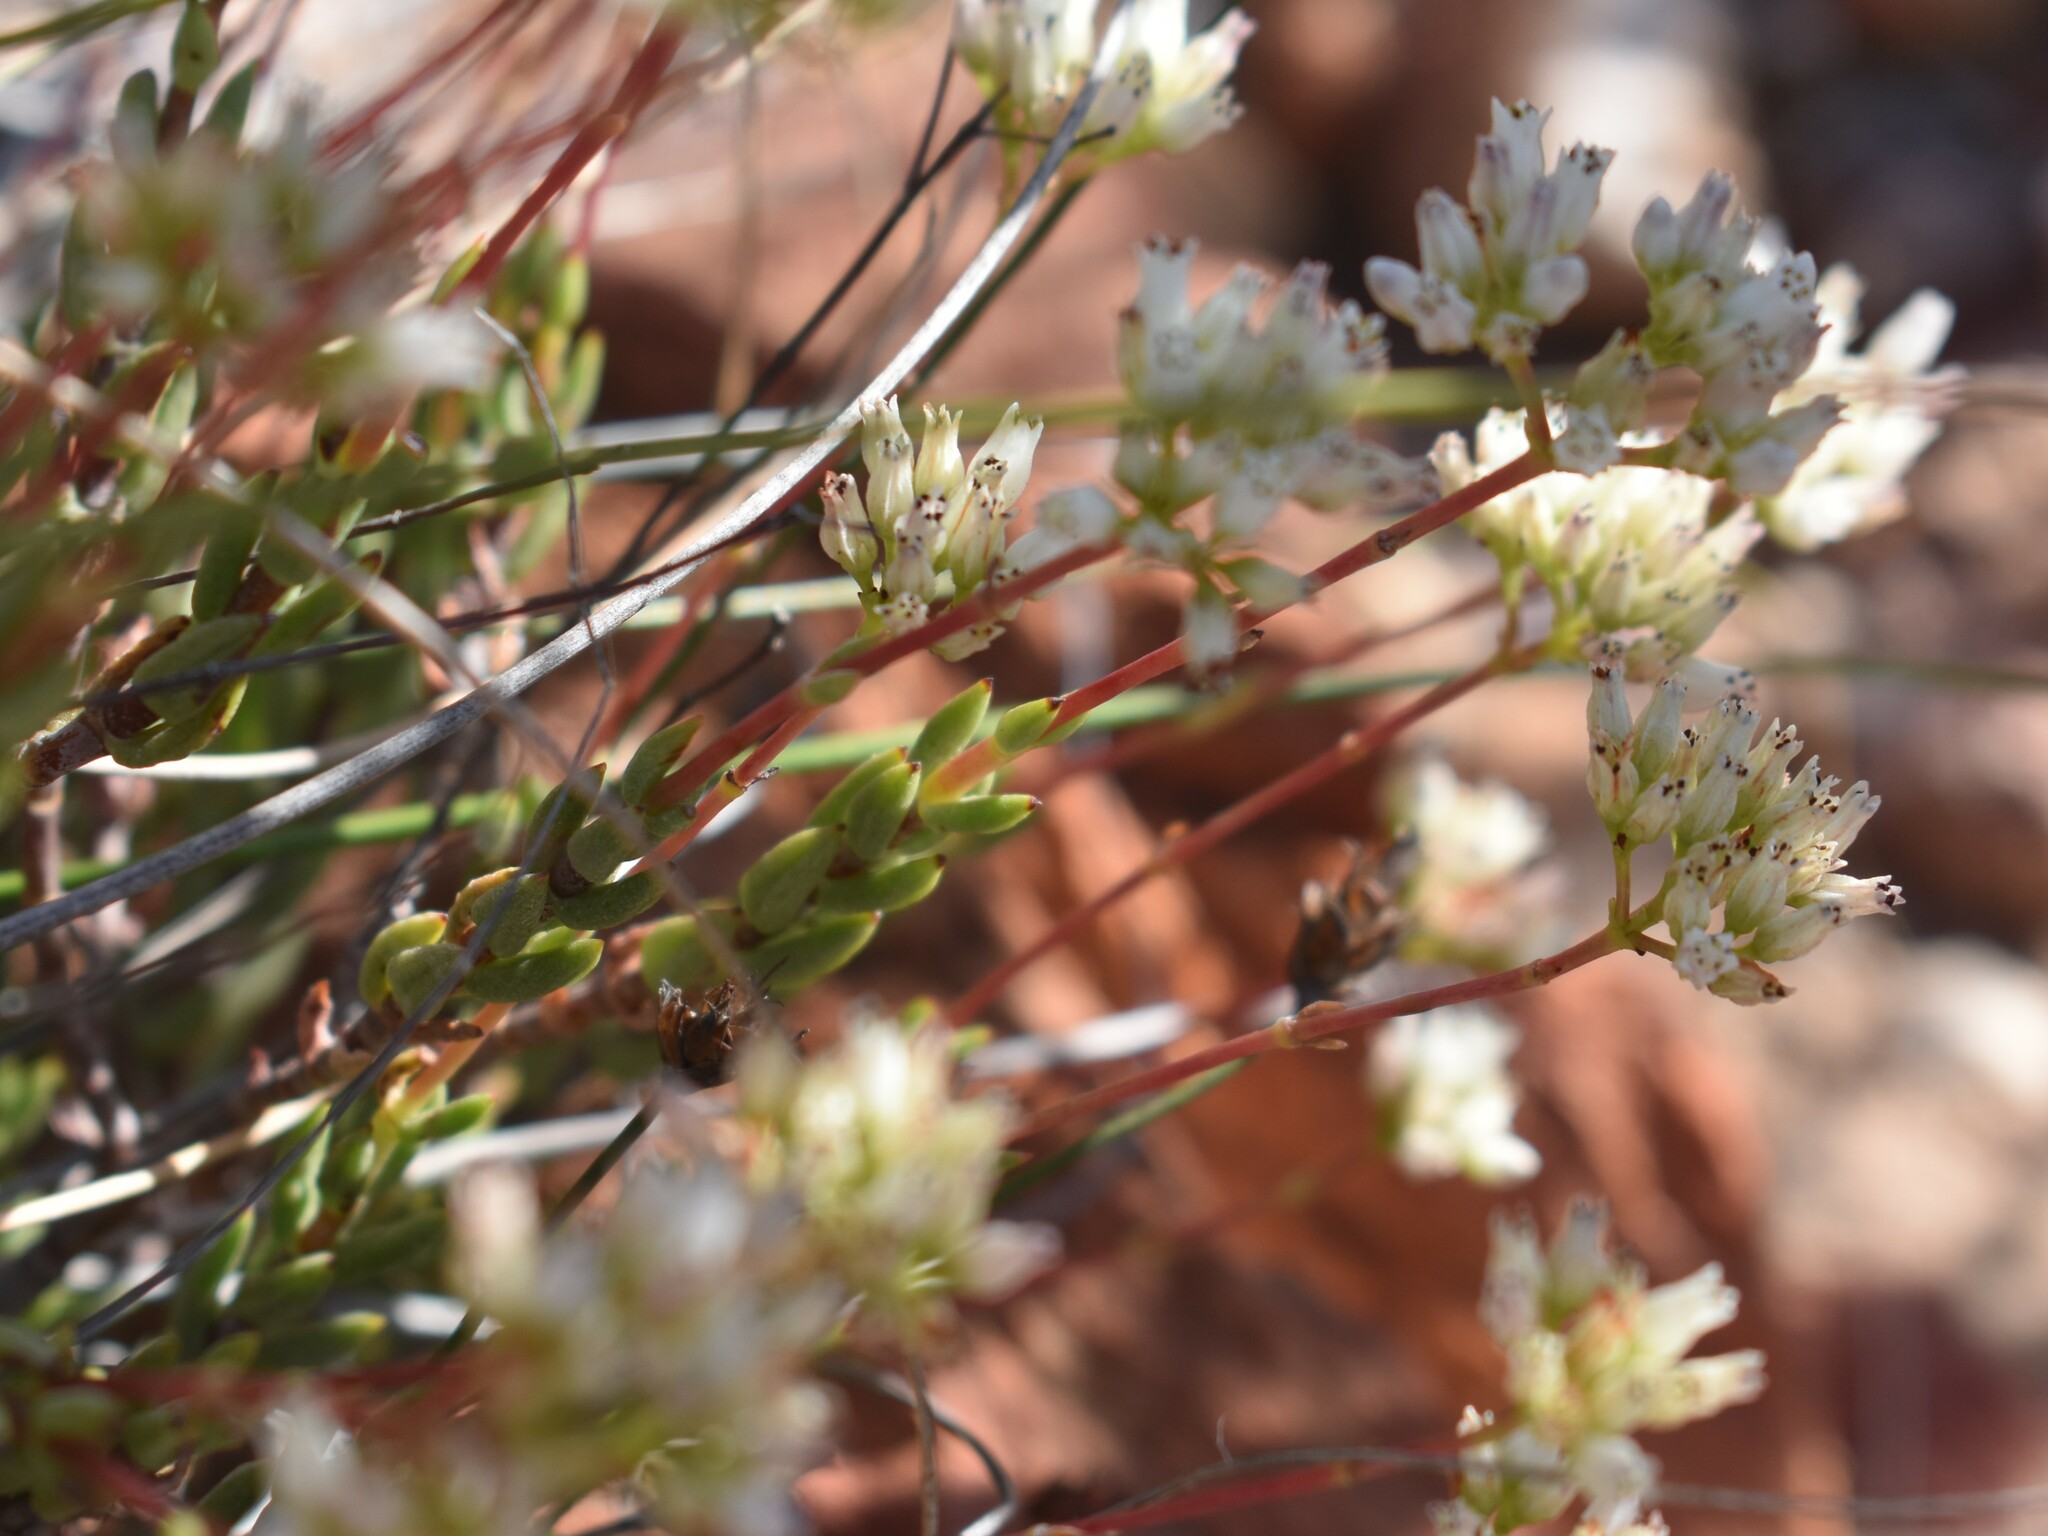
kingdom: Plantae
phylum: Tracheophyta
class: Magnoliopsida
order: Saxifragales
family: Crassulaceae
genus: Crassula
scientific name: Crassula biplanata
